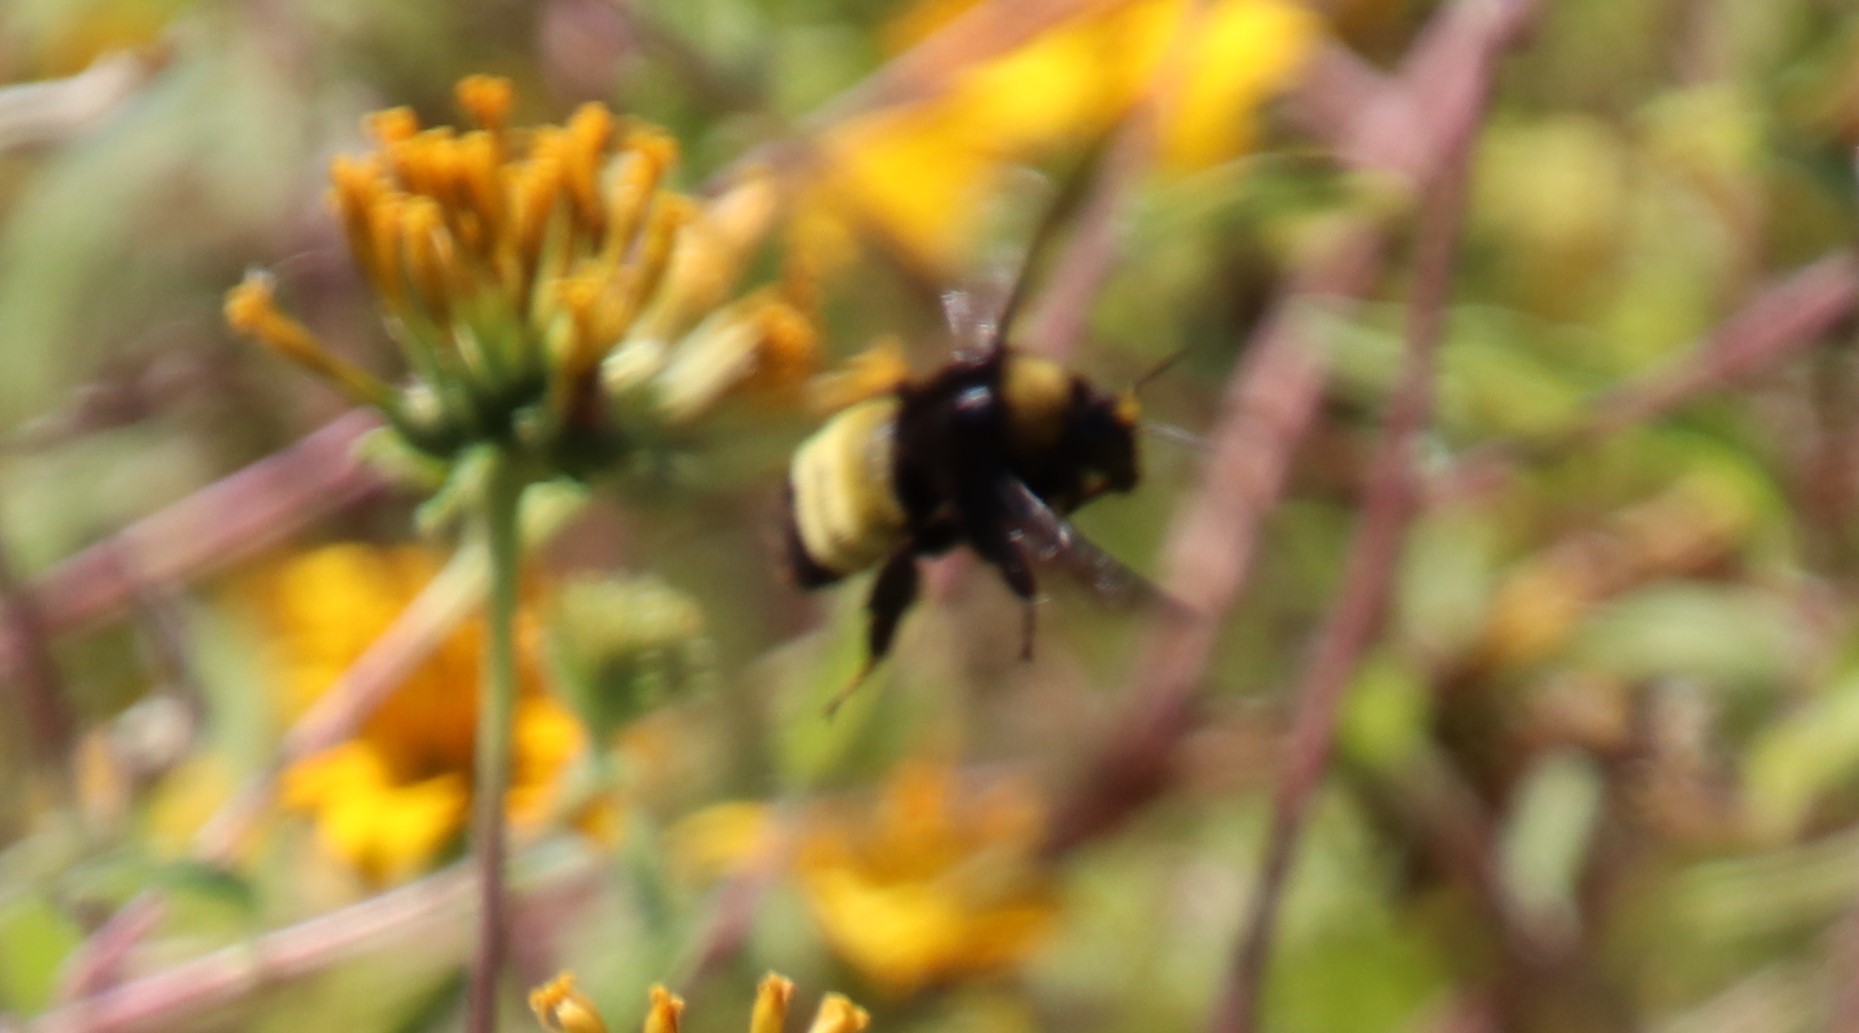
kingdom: Animalia
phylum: Arthropoda
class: Insecta
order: Hymenoptera
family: Apidae
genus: Bombus
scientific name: Bombus pensylvanicus
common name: Bumble bee
